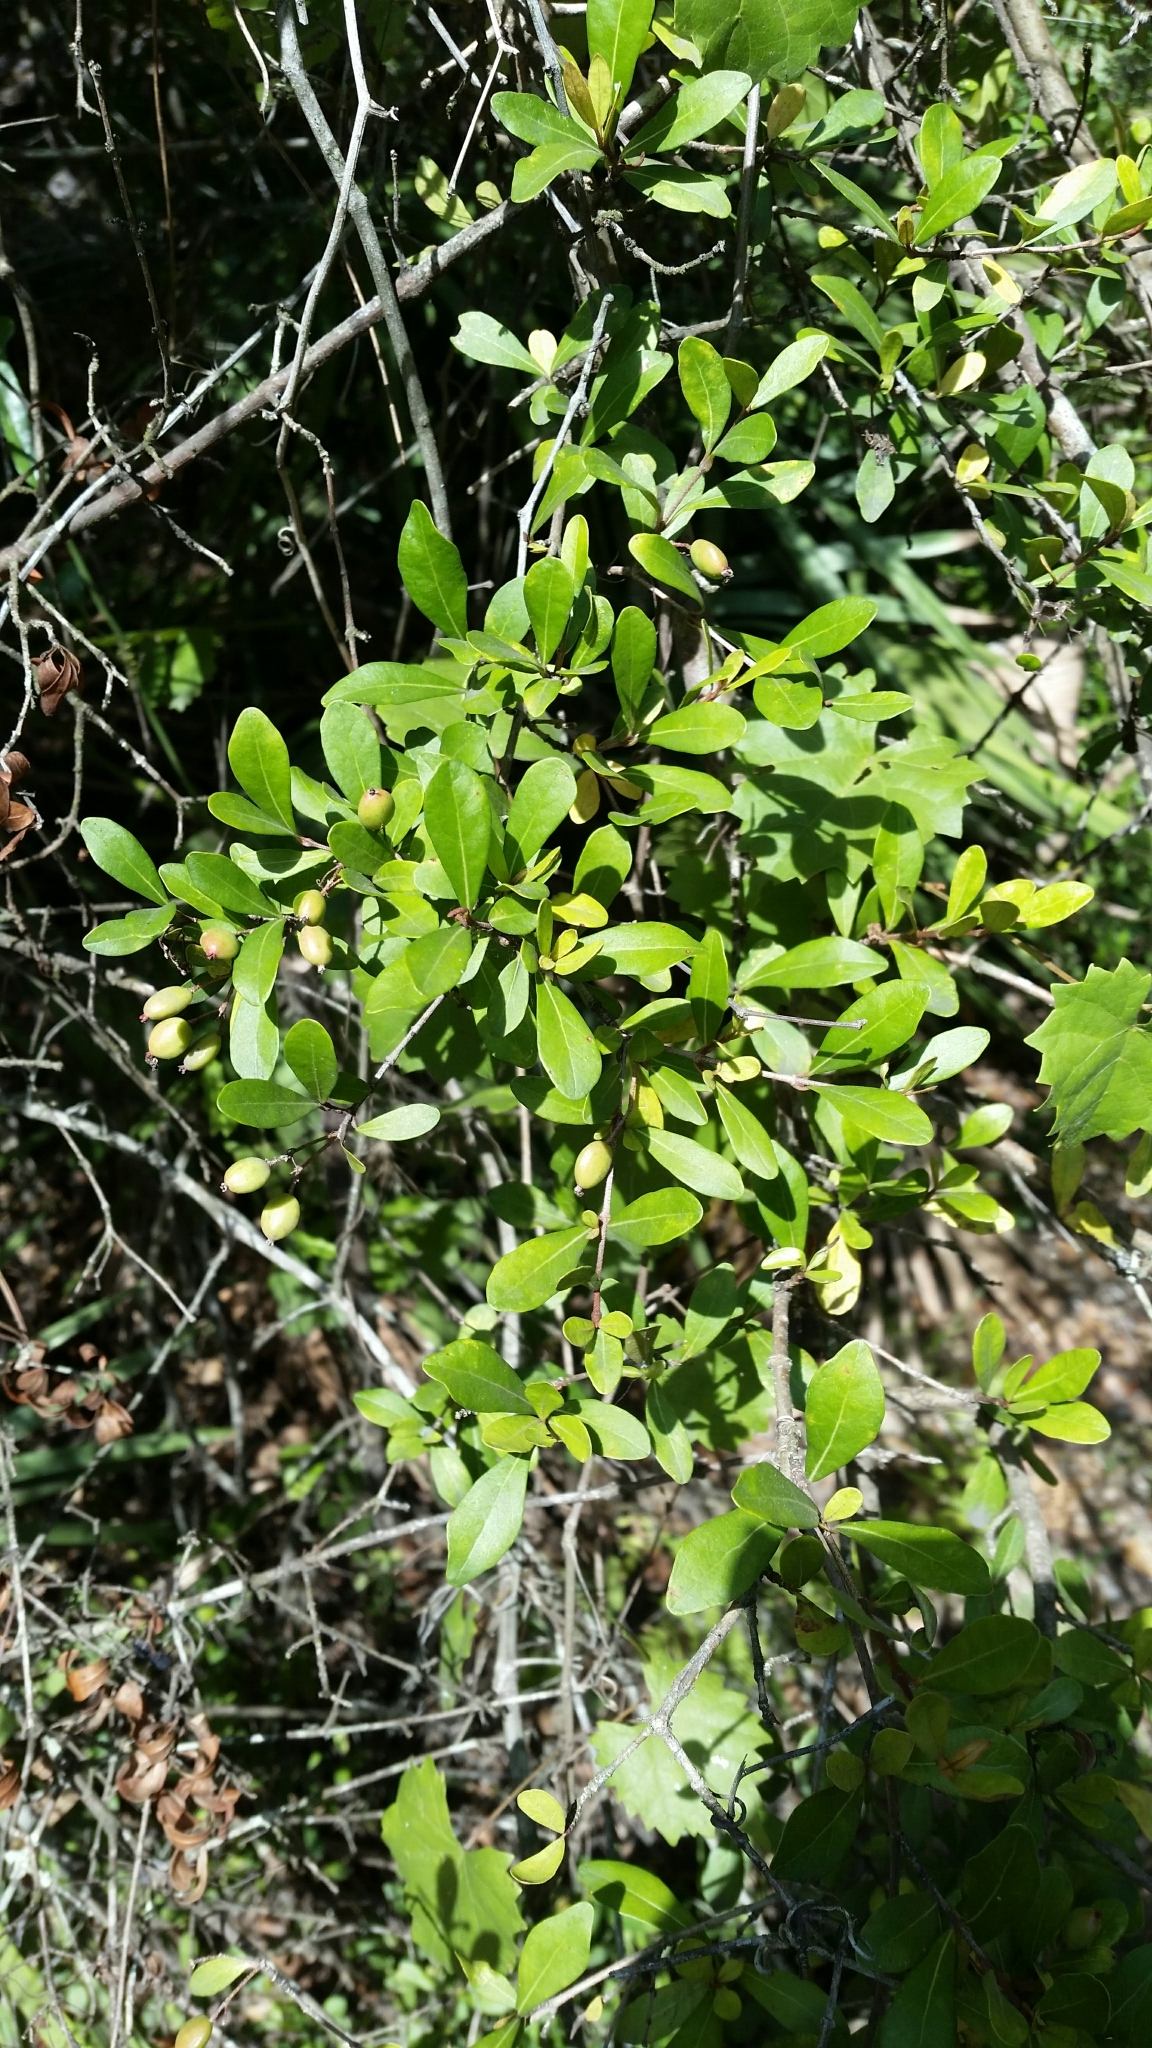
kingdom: Plantae
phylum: Tracheophyta
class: Magnoliopsida
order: Dipsacales
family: Viburnaceae
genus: Viburnum
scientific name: Viburnum obovatum
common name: Walter's viburnum
